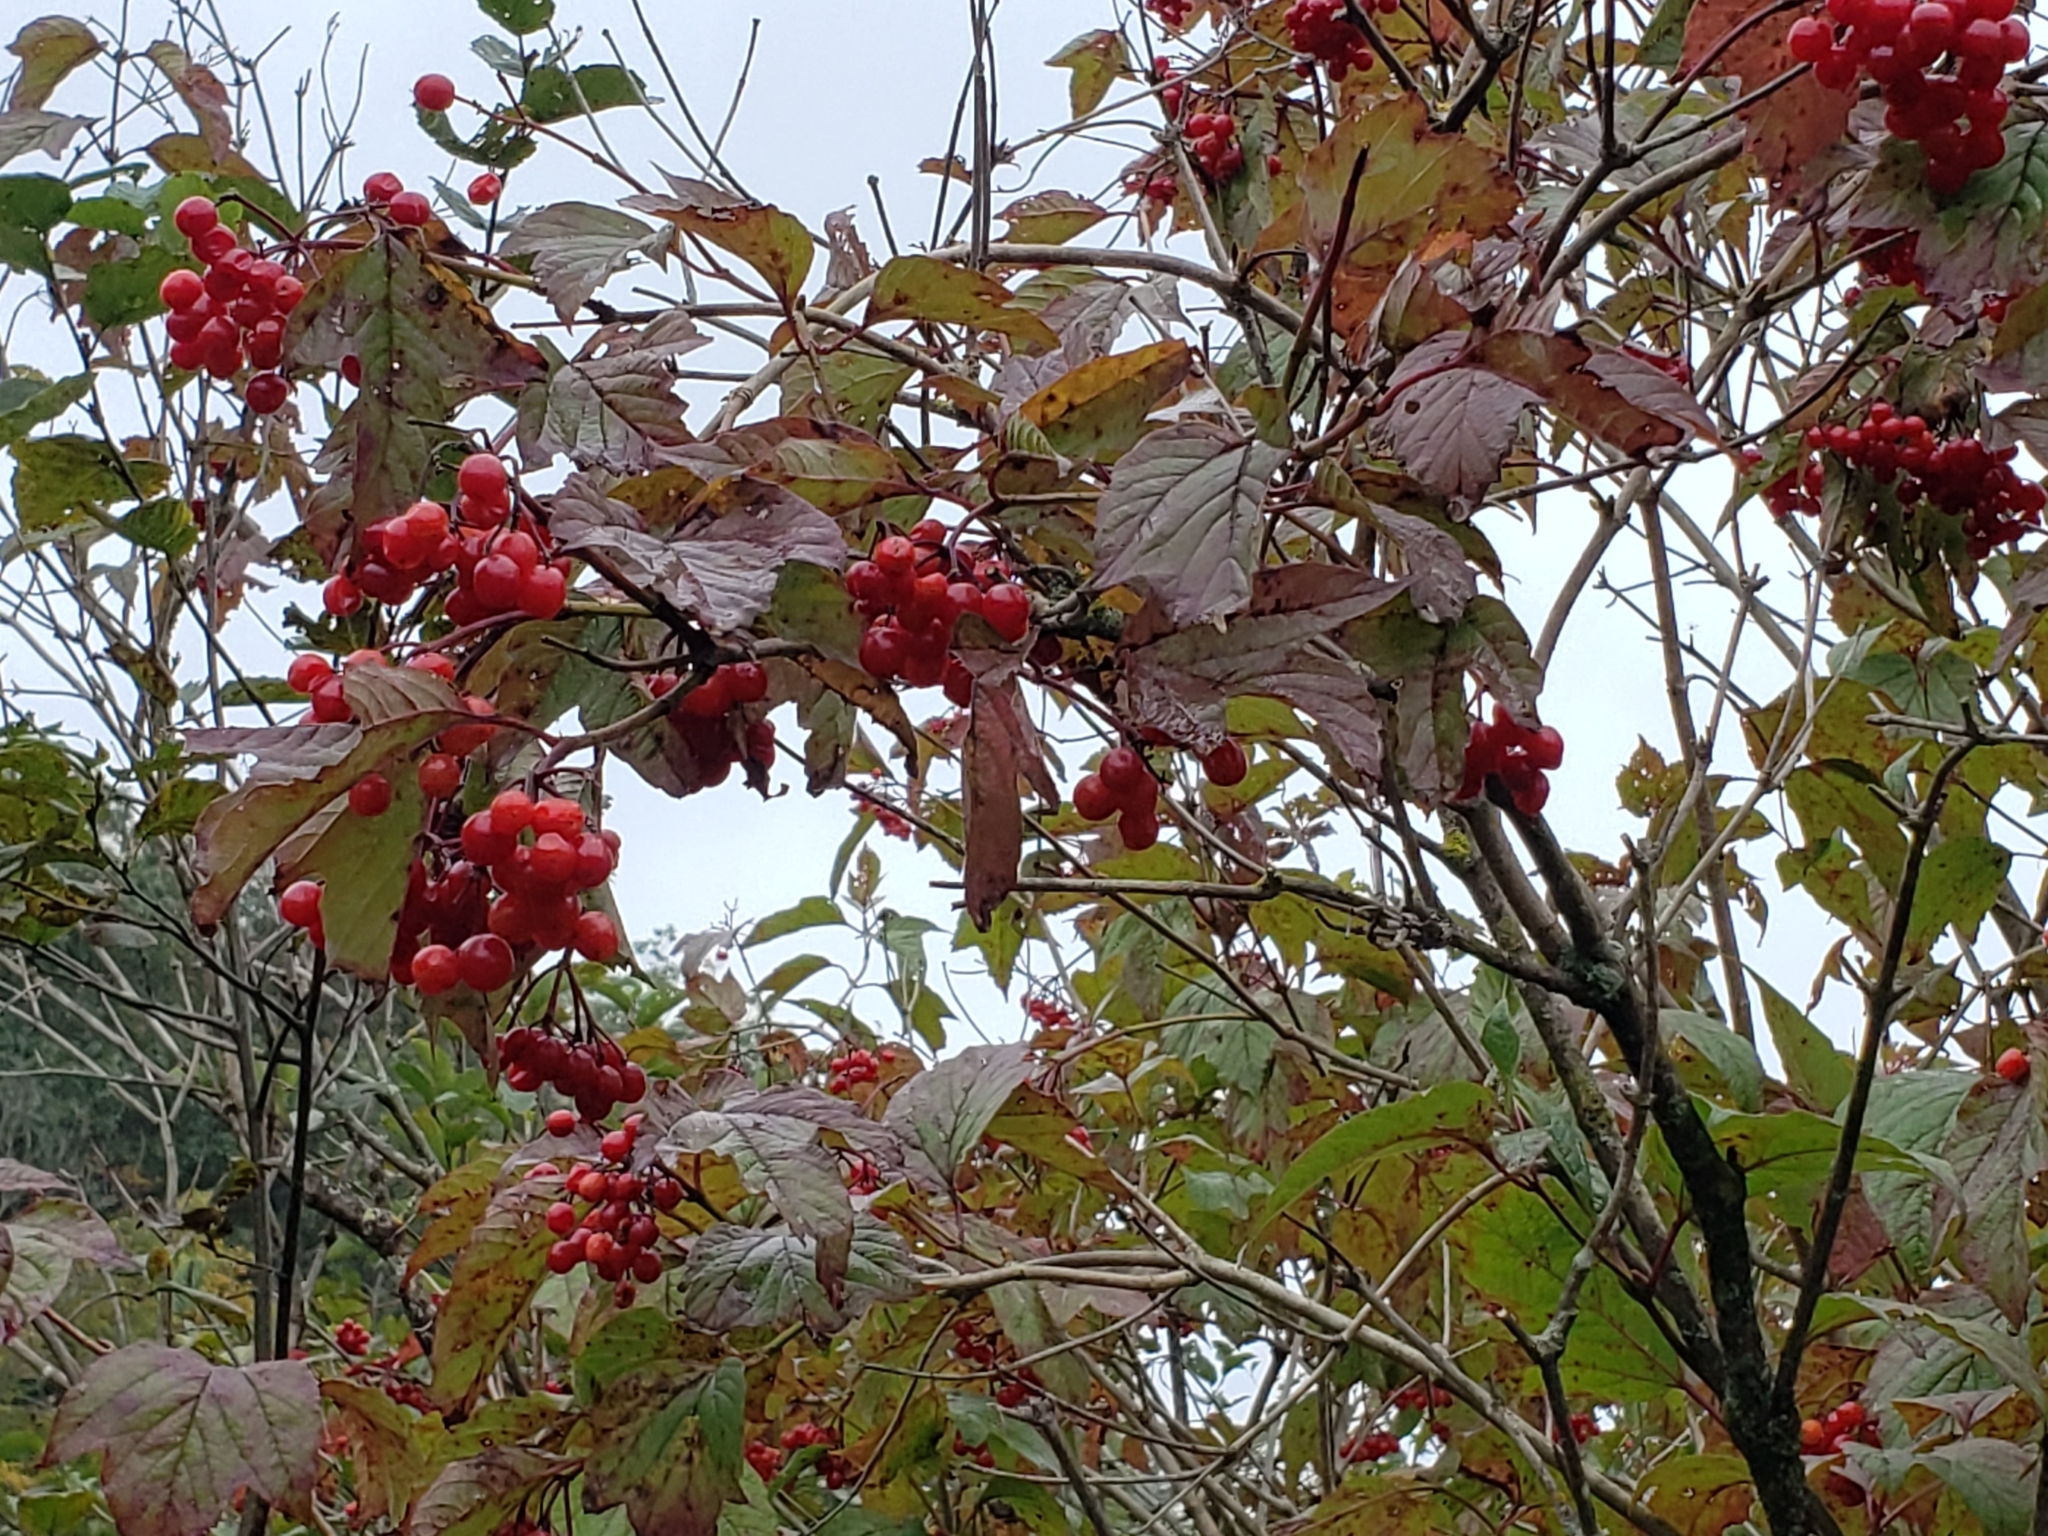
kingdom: Plantae
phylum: Tracheophyta
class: Magnoliopsida
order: Dipsacales
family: Viburnaceae
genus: Viburnum
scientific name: Viburnum opulus
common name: Guelder-rose
